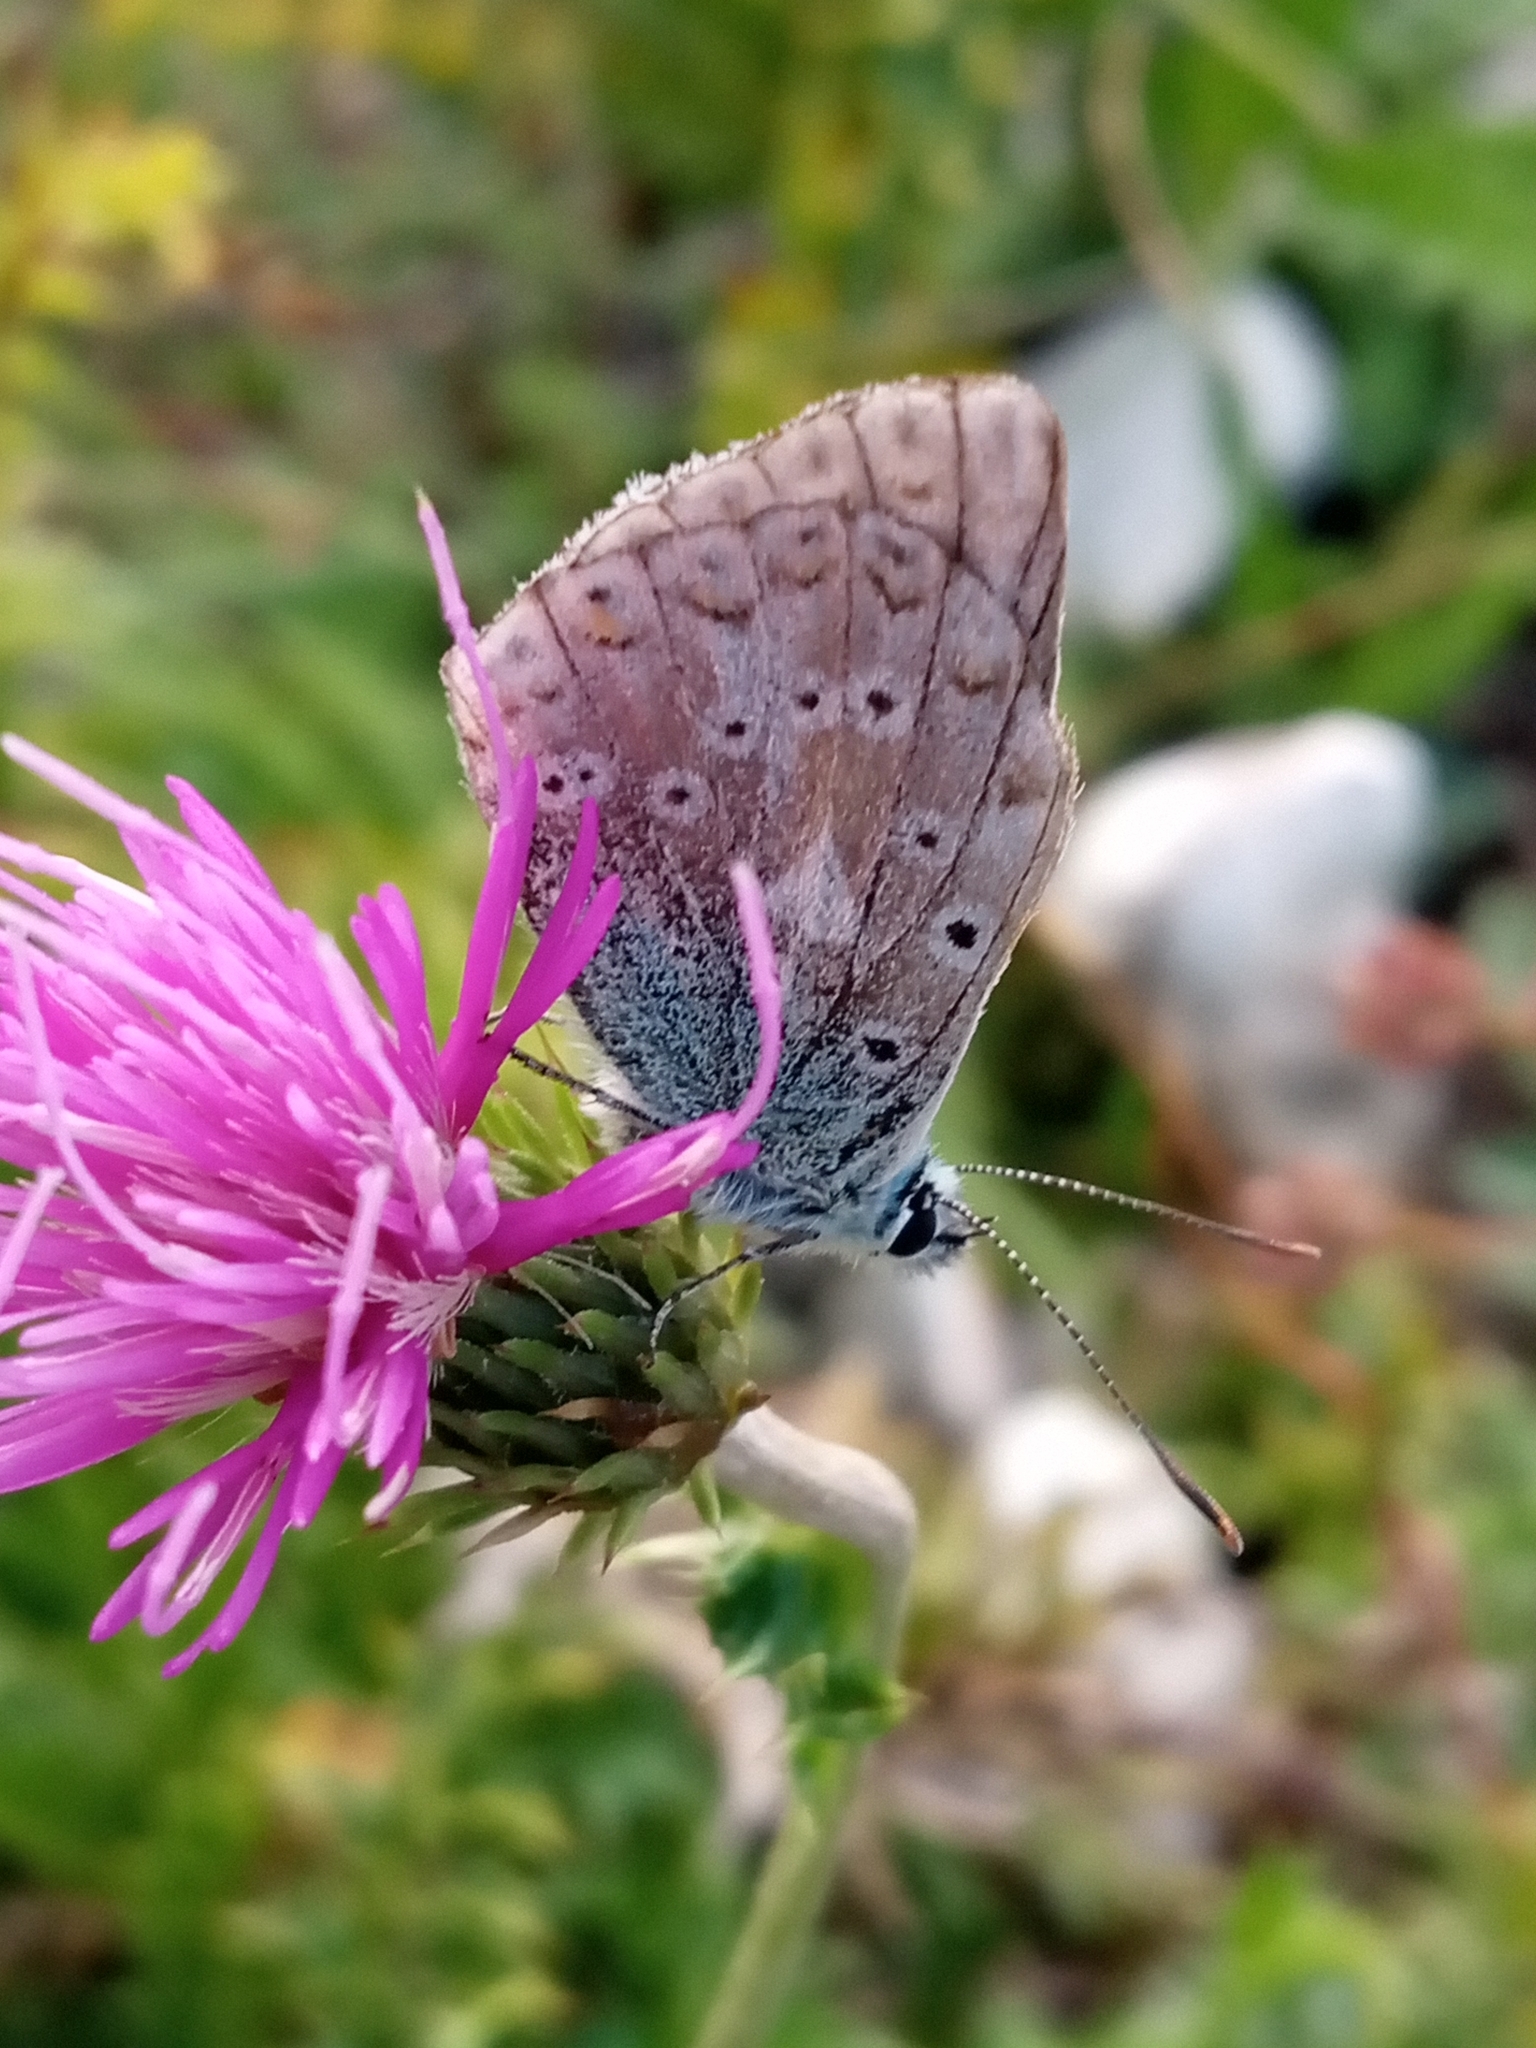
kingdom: Animalia
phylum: Arthropoda
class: Insecta
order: Lepidoptera
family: Lycaenidae
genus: Lysandra
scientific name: Lysandra coridon
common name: Chalkhill blue
